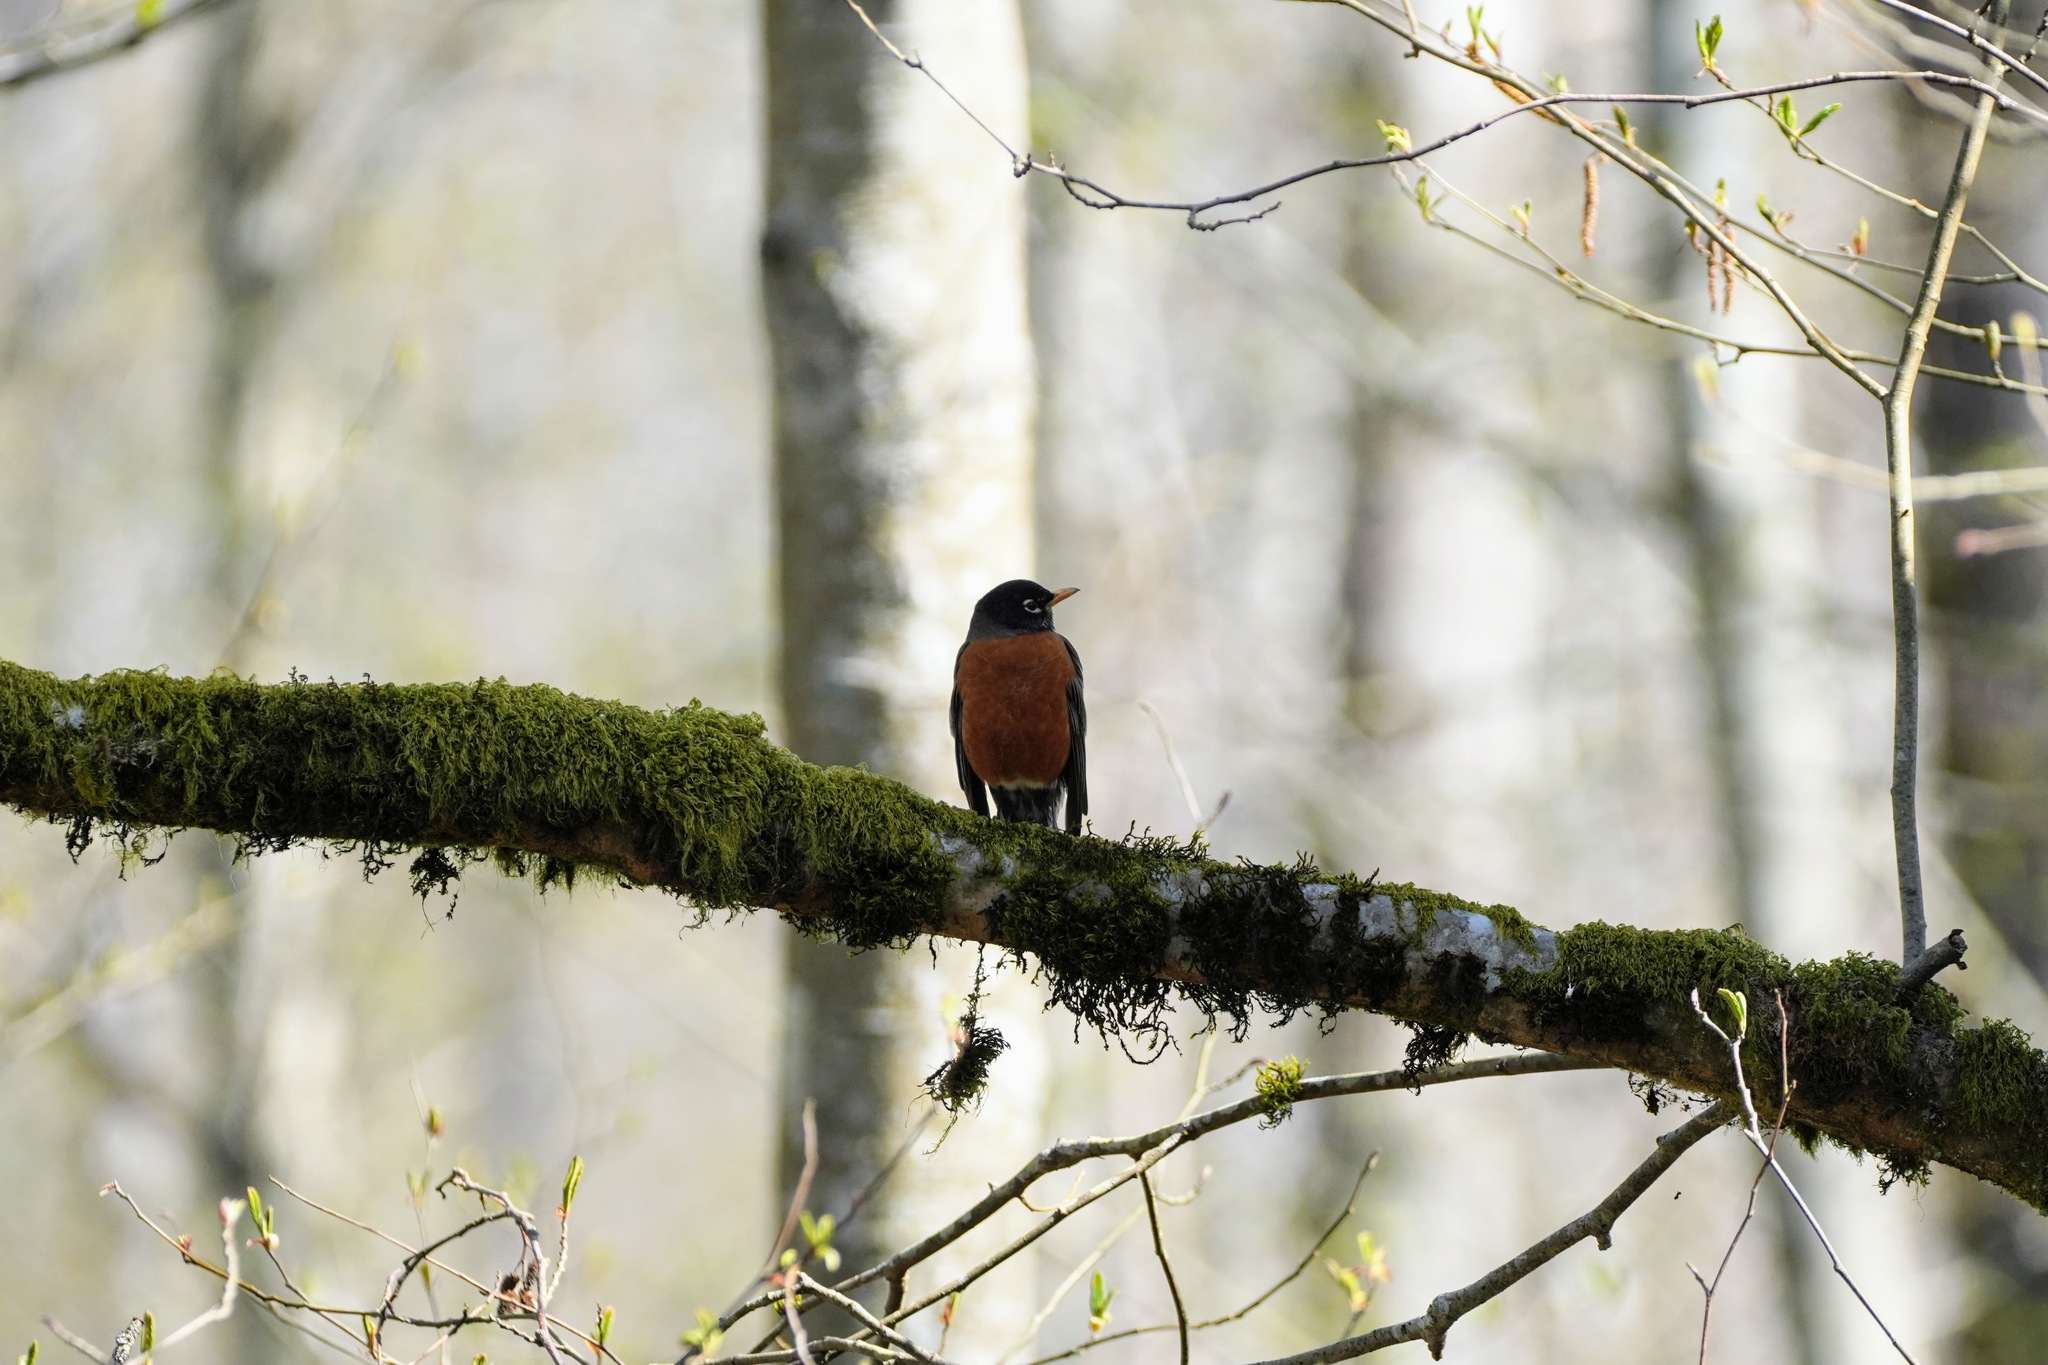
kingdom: Animalia
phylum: Chordata
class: Aves
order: Passeriformes
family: Turdidae
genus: Turdus
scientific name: Turdus migratorius
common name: American robin
